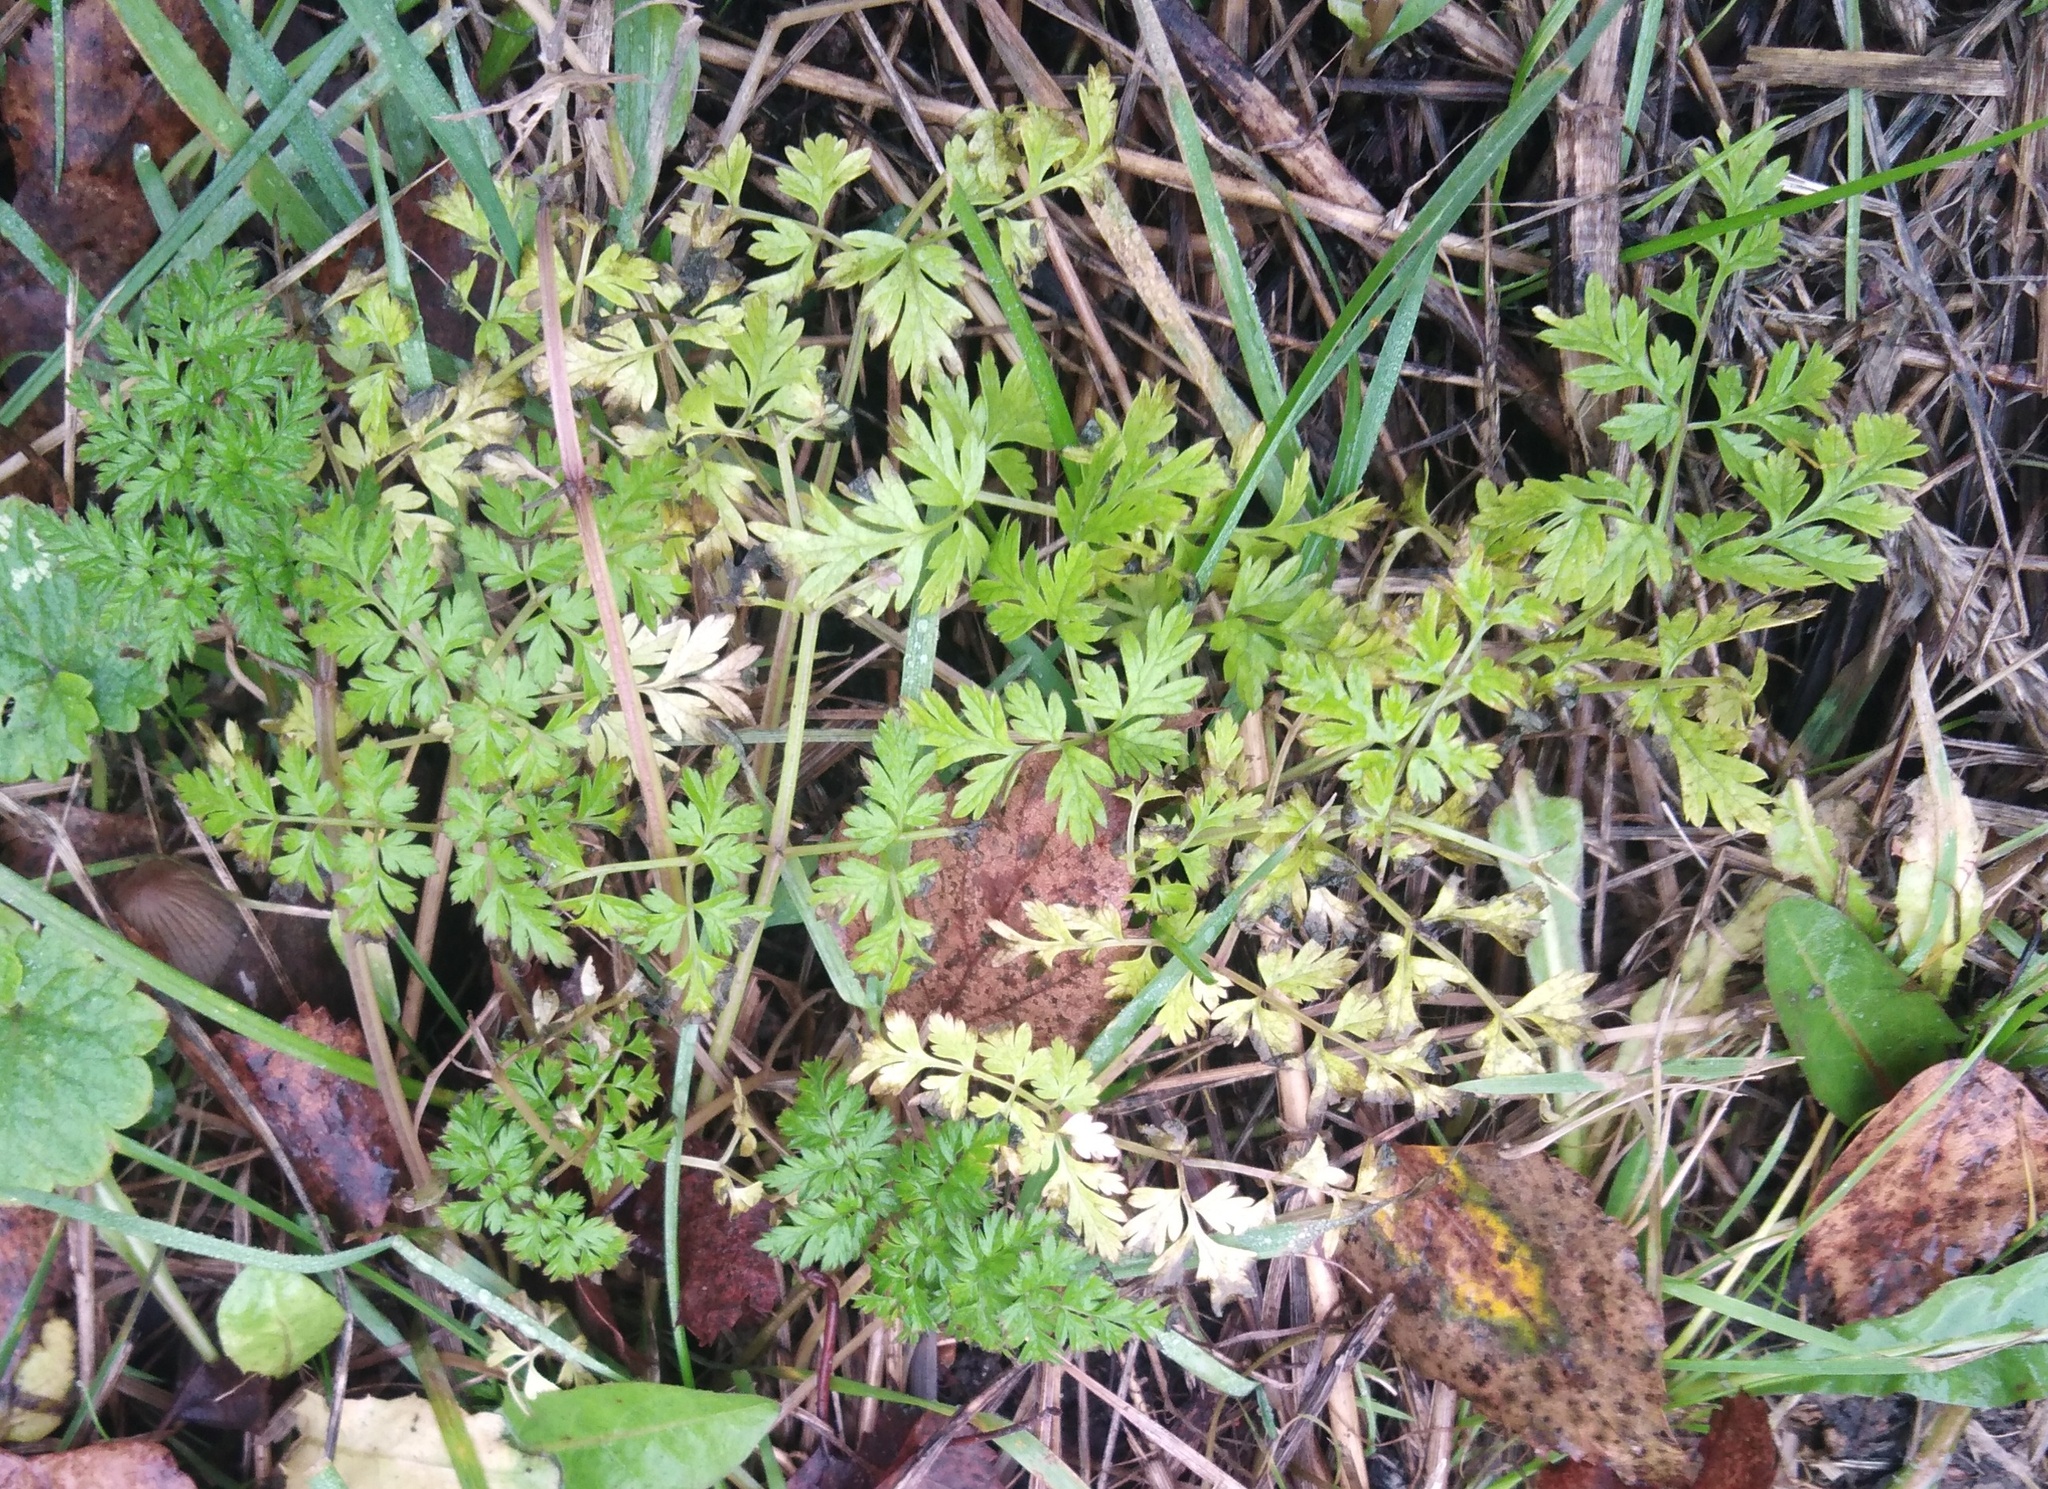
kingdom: Plantae
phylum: Tracheophyta
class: Magnoliopsida
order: Apiales
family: Apiaceae
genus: Anthriscus
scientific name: Anthriscus sylvestris
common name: Cow parsley
